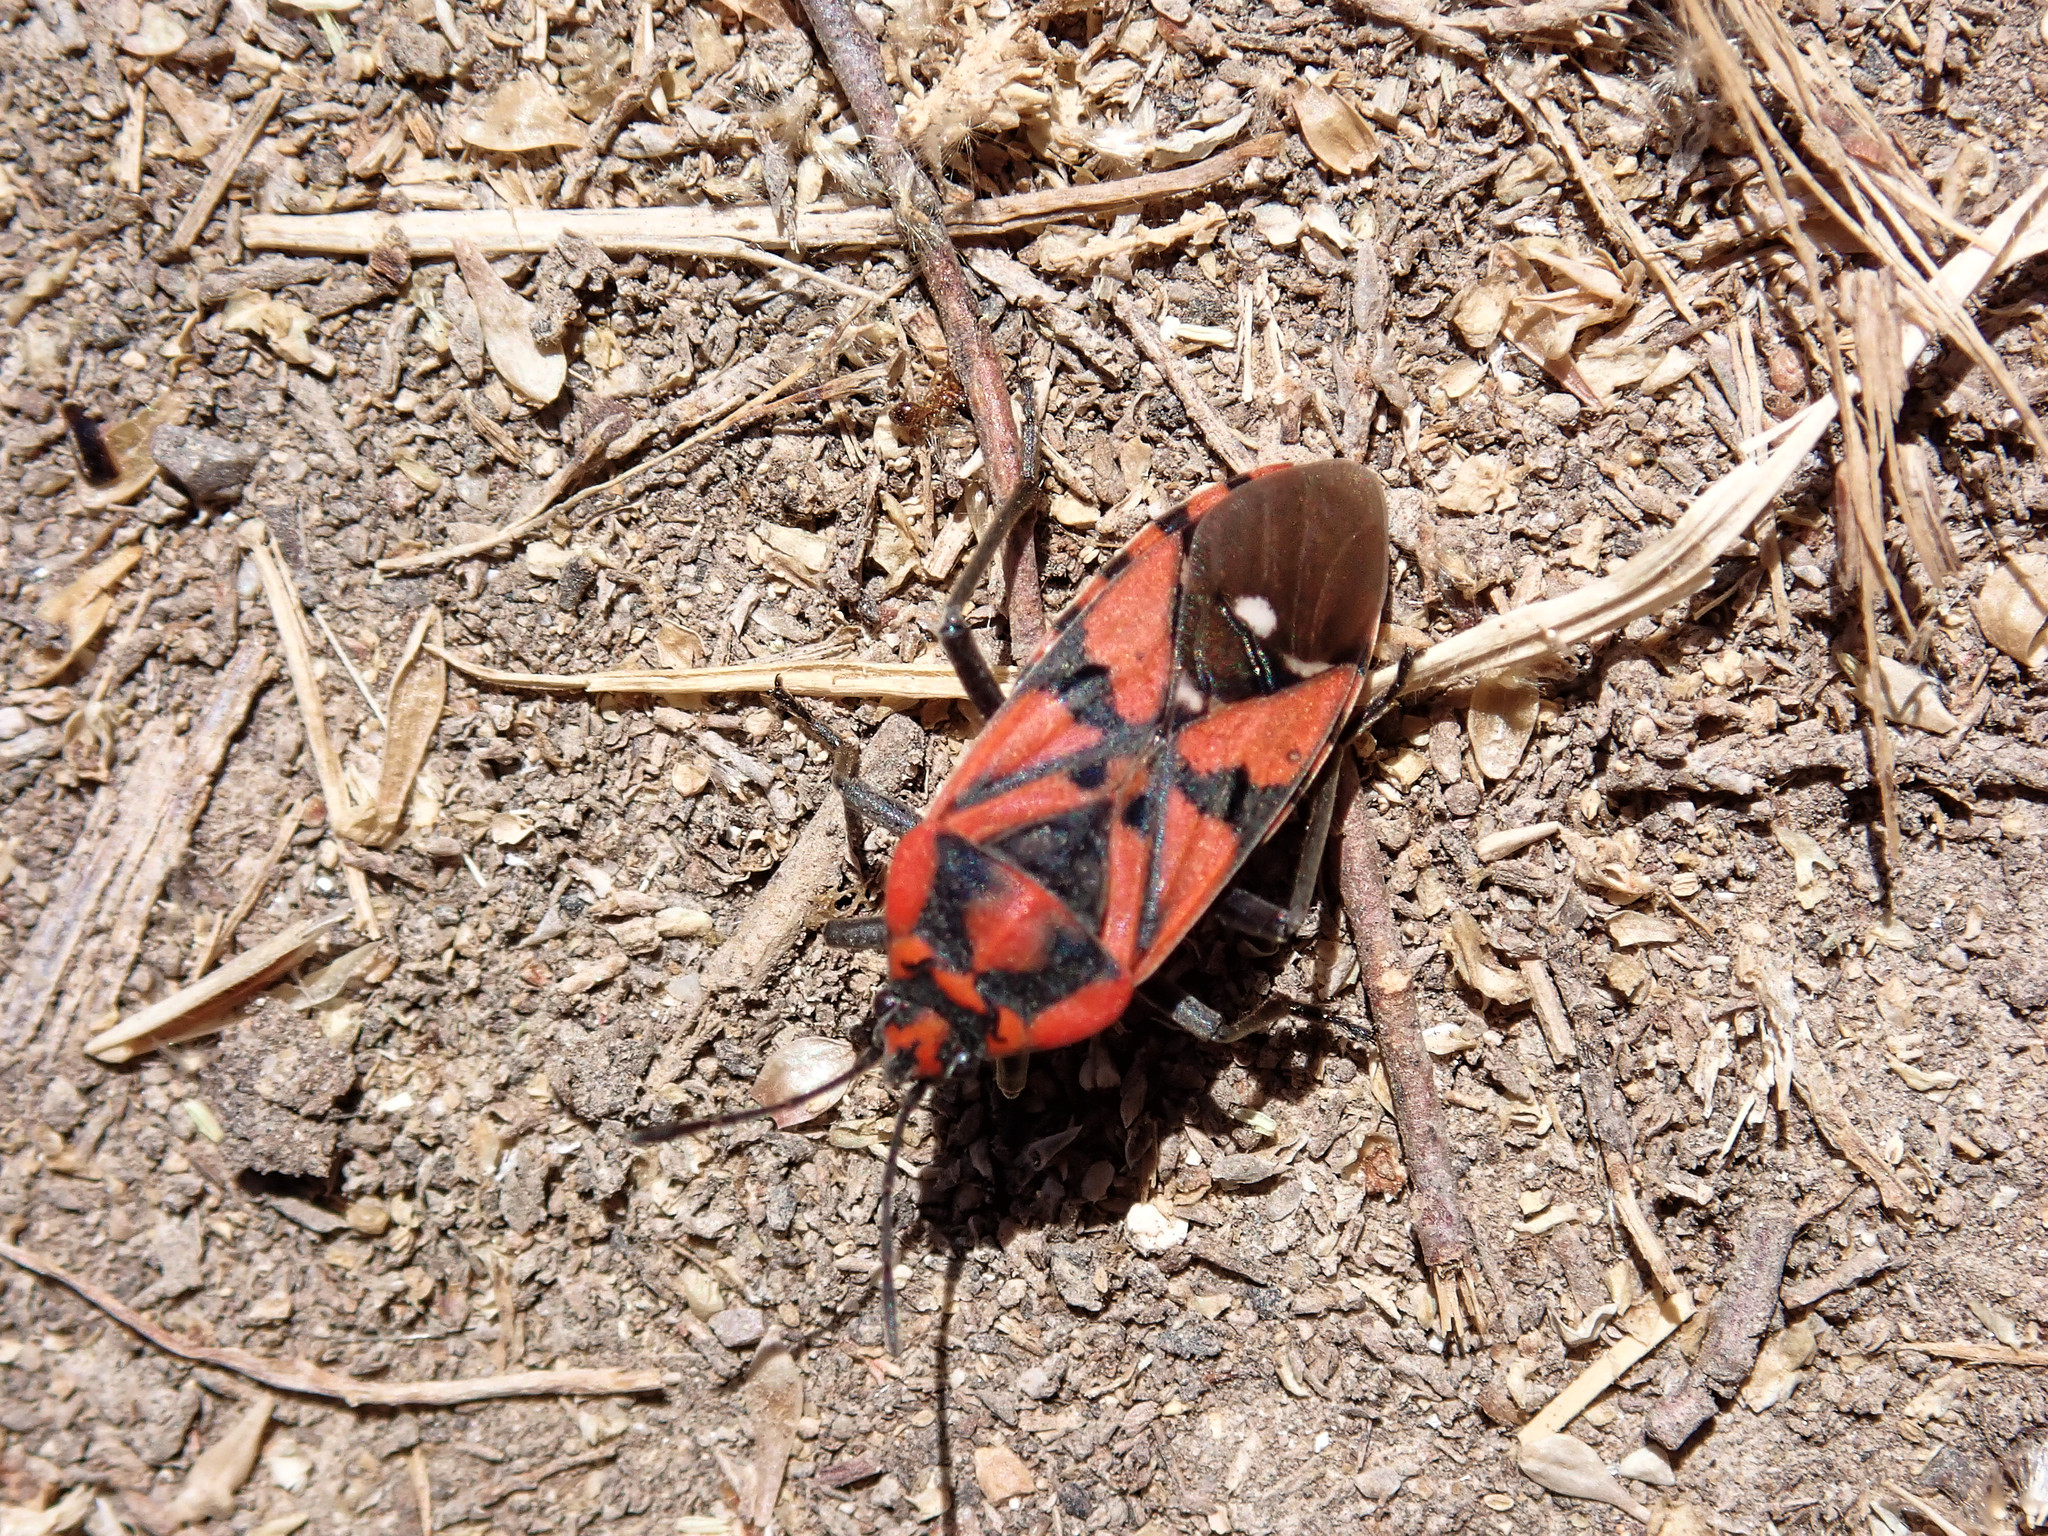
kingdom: Animalia
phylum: Arthropoda
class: Insecta
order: Hemiptera
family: Lygaeidae
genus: Spilostethus
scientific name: Spilostethus pandurus
